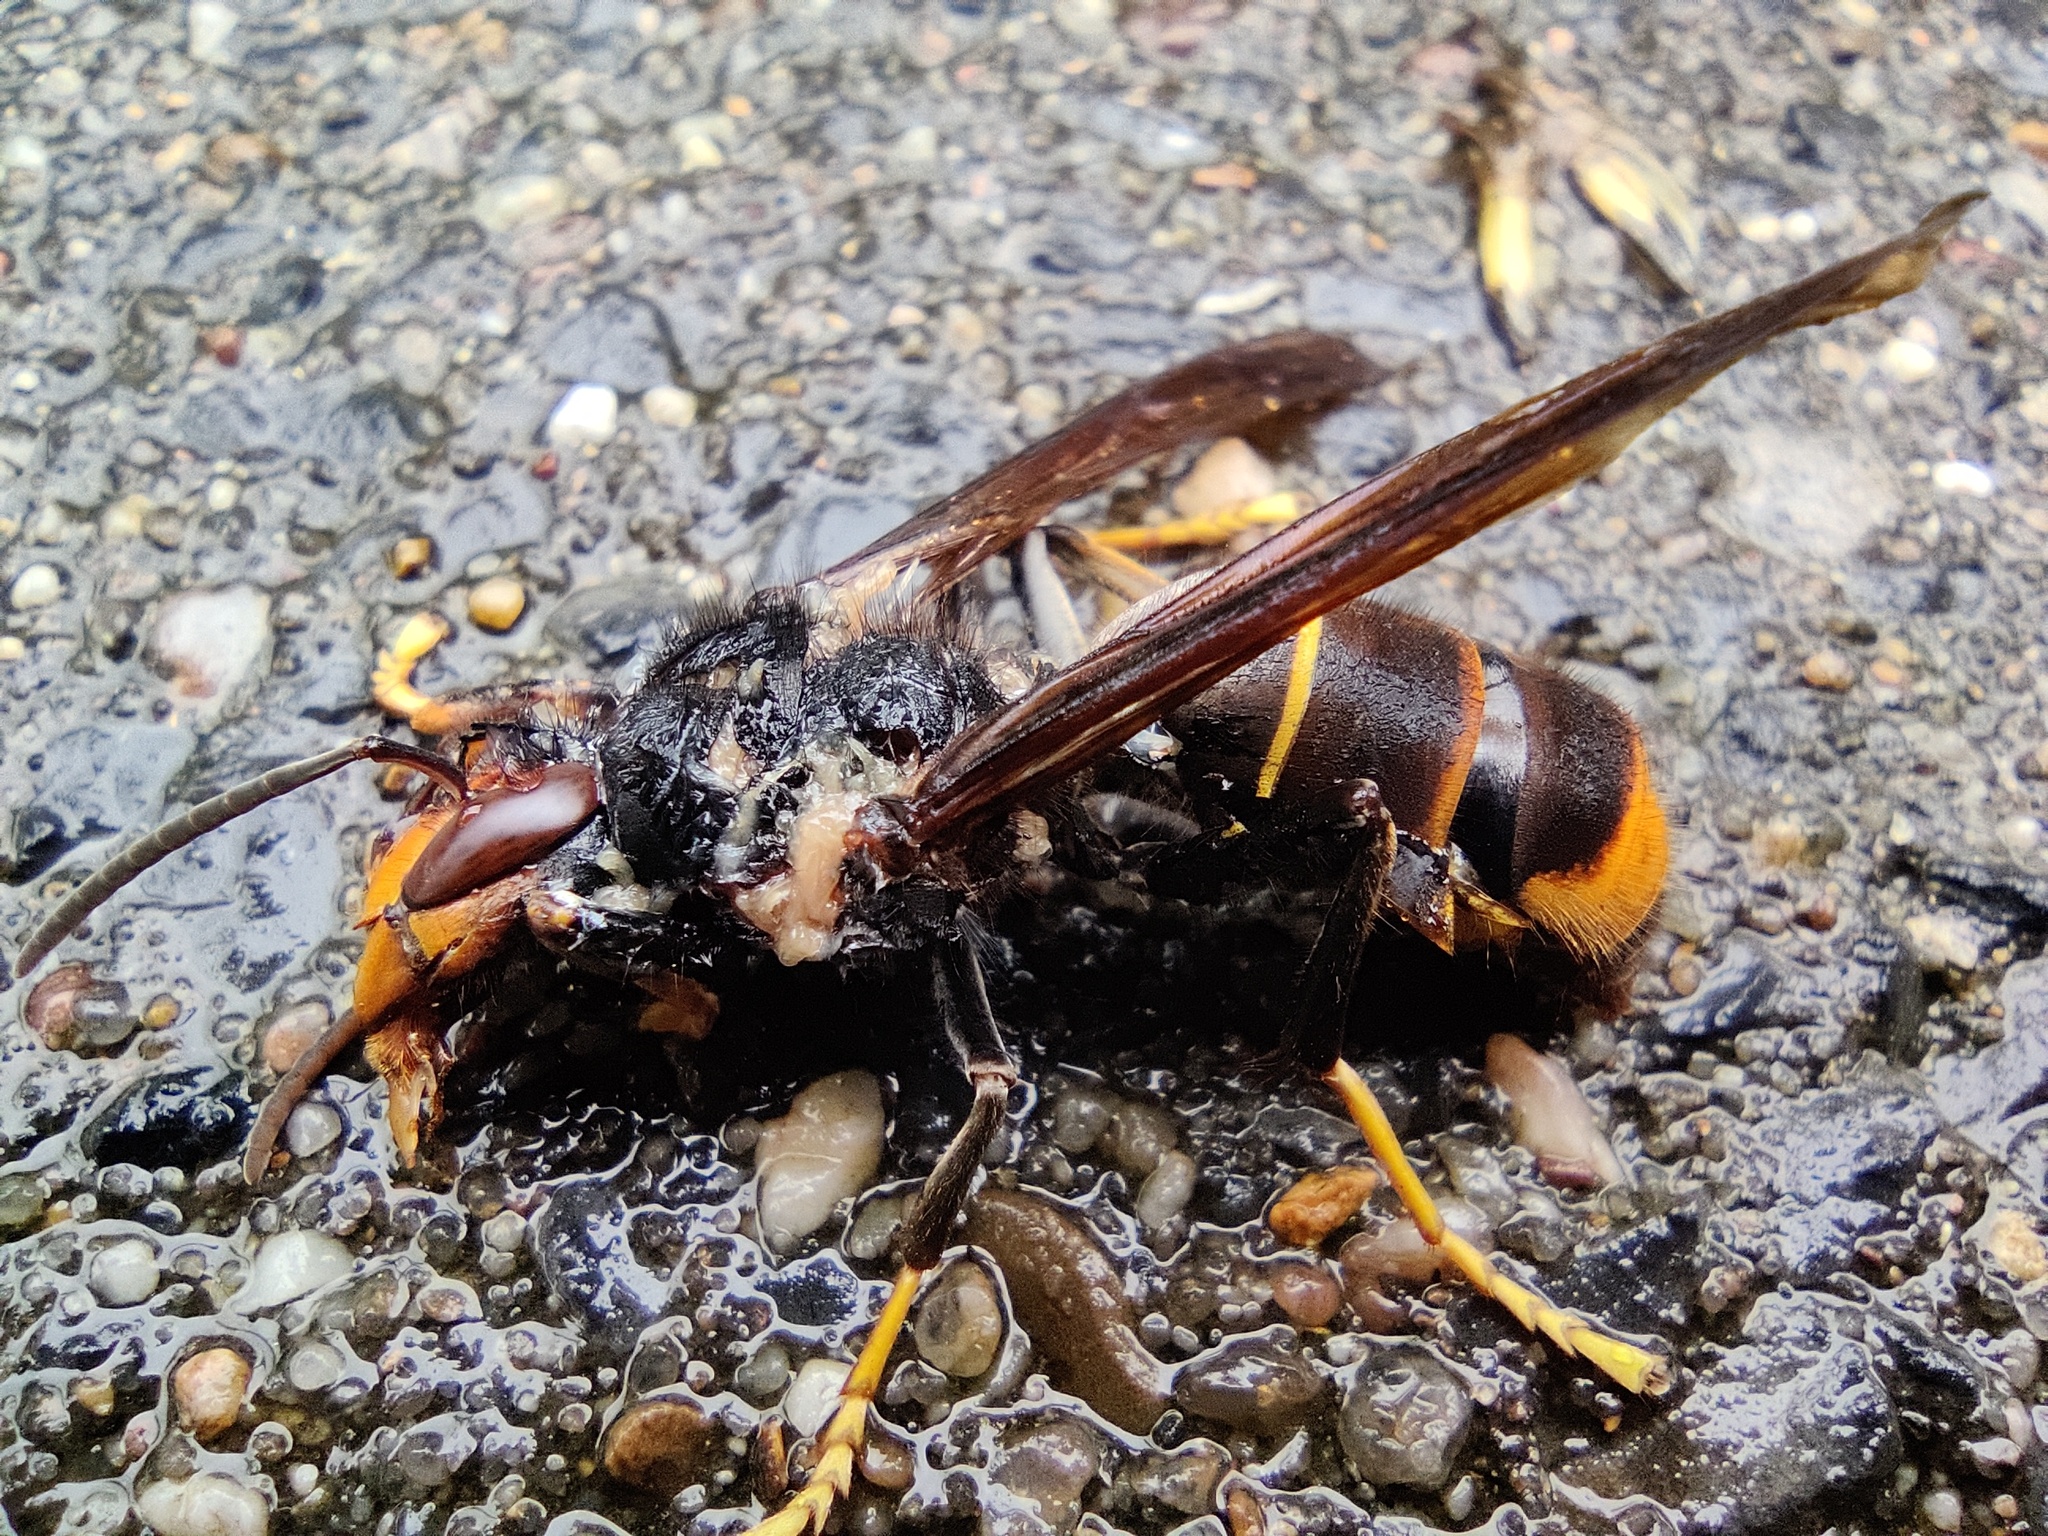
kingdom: Animalia
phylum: Arthropoda
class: Insecta
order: Hymenoptera
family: Vespidae
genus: Vespa
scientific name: Vespa velutina
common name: Asian hornet
